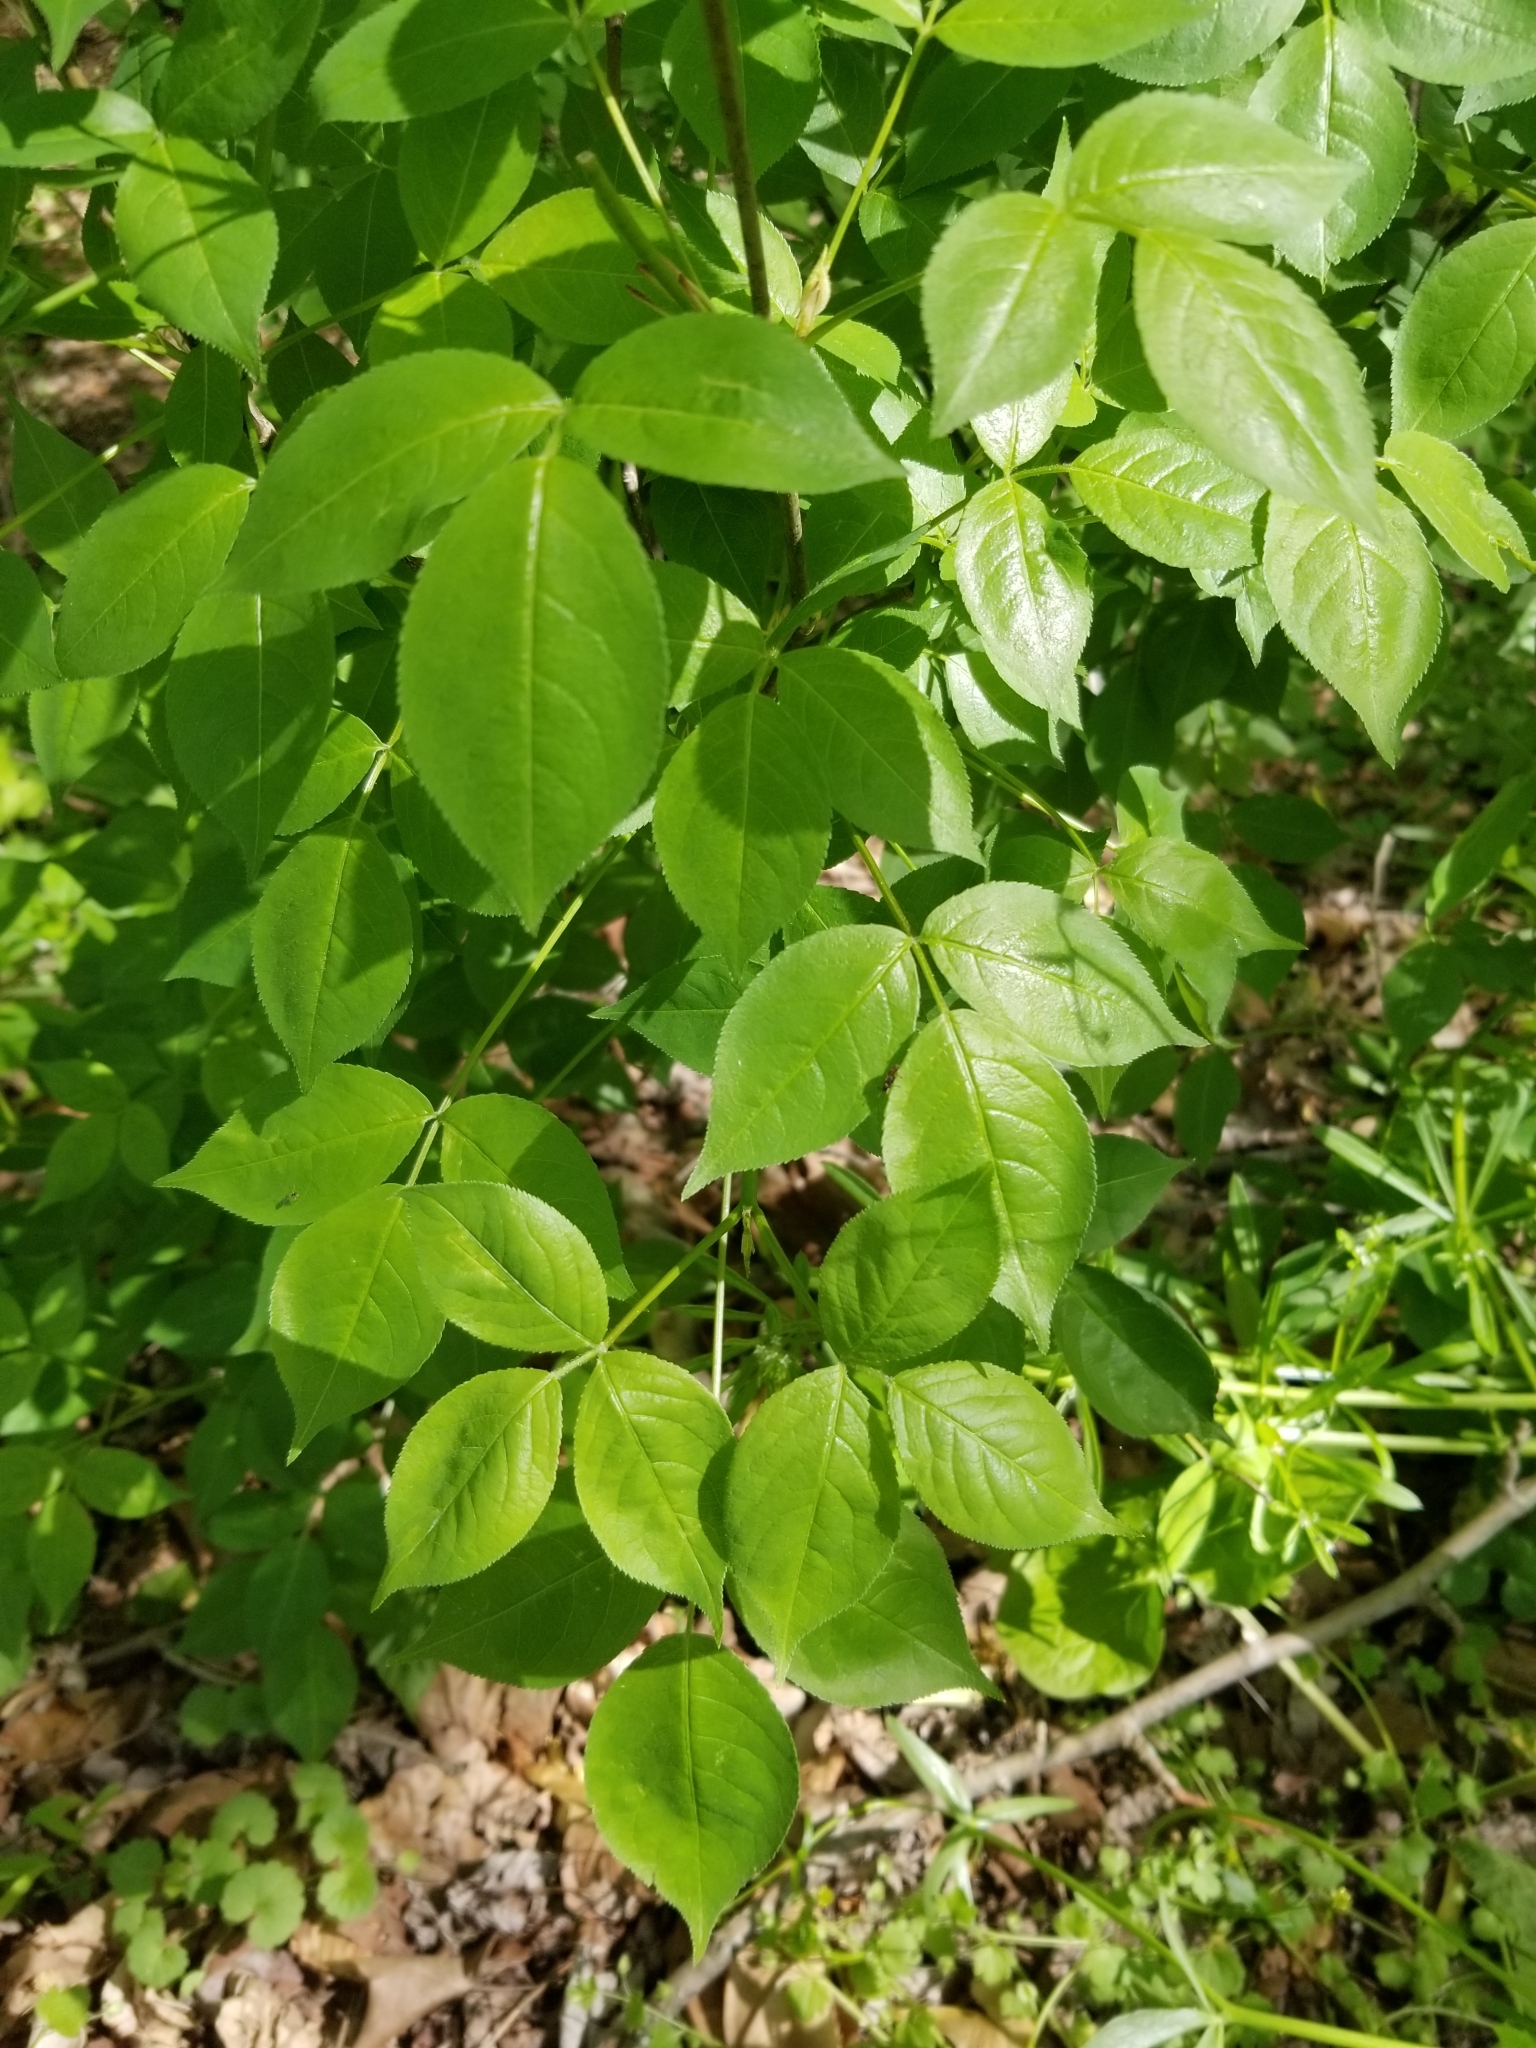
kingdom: Plantae
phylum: Tracheophyta
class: Magnoliopsida
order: Crossosomatales
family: Staphyleaceae
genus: Staphylea
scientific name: Staphylea trifolia
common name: American bladdernut
